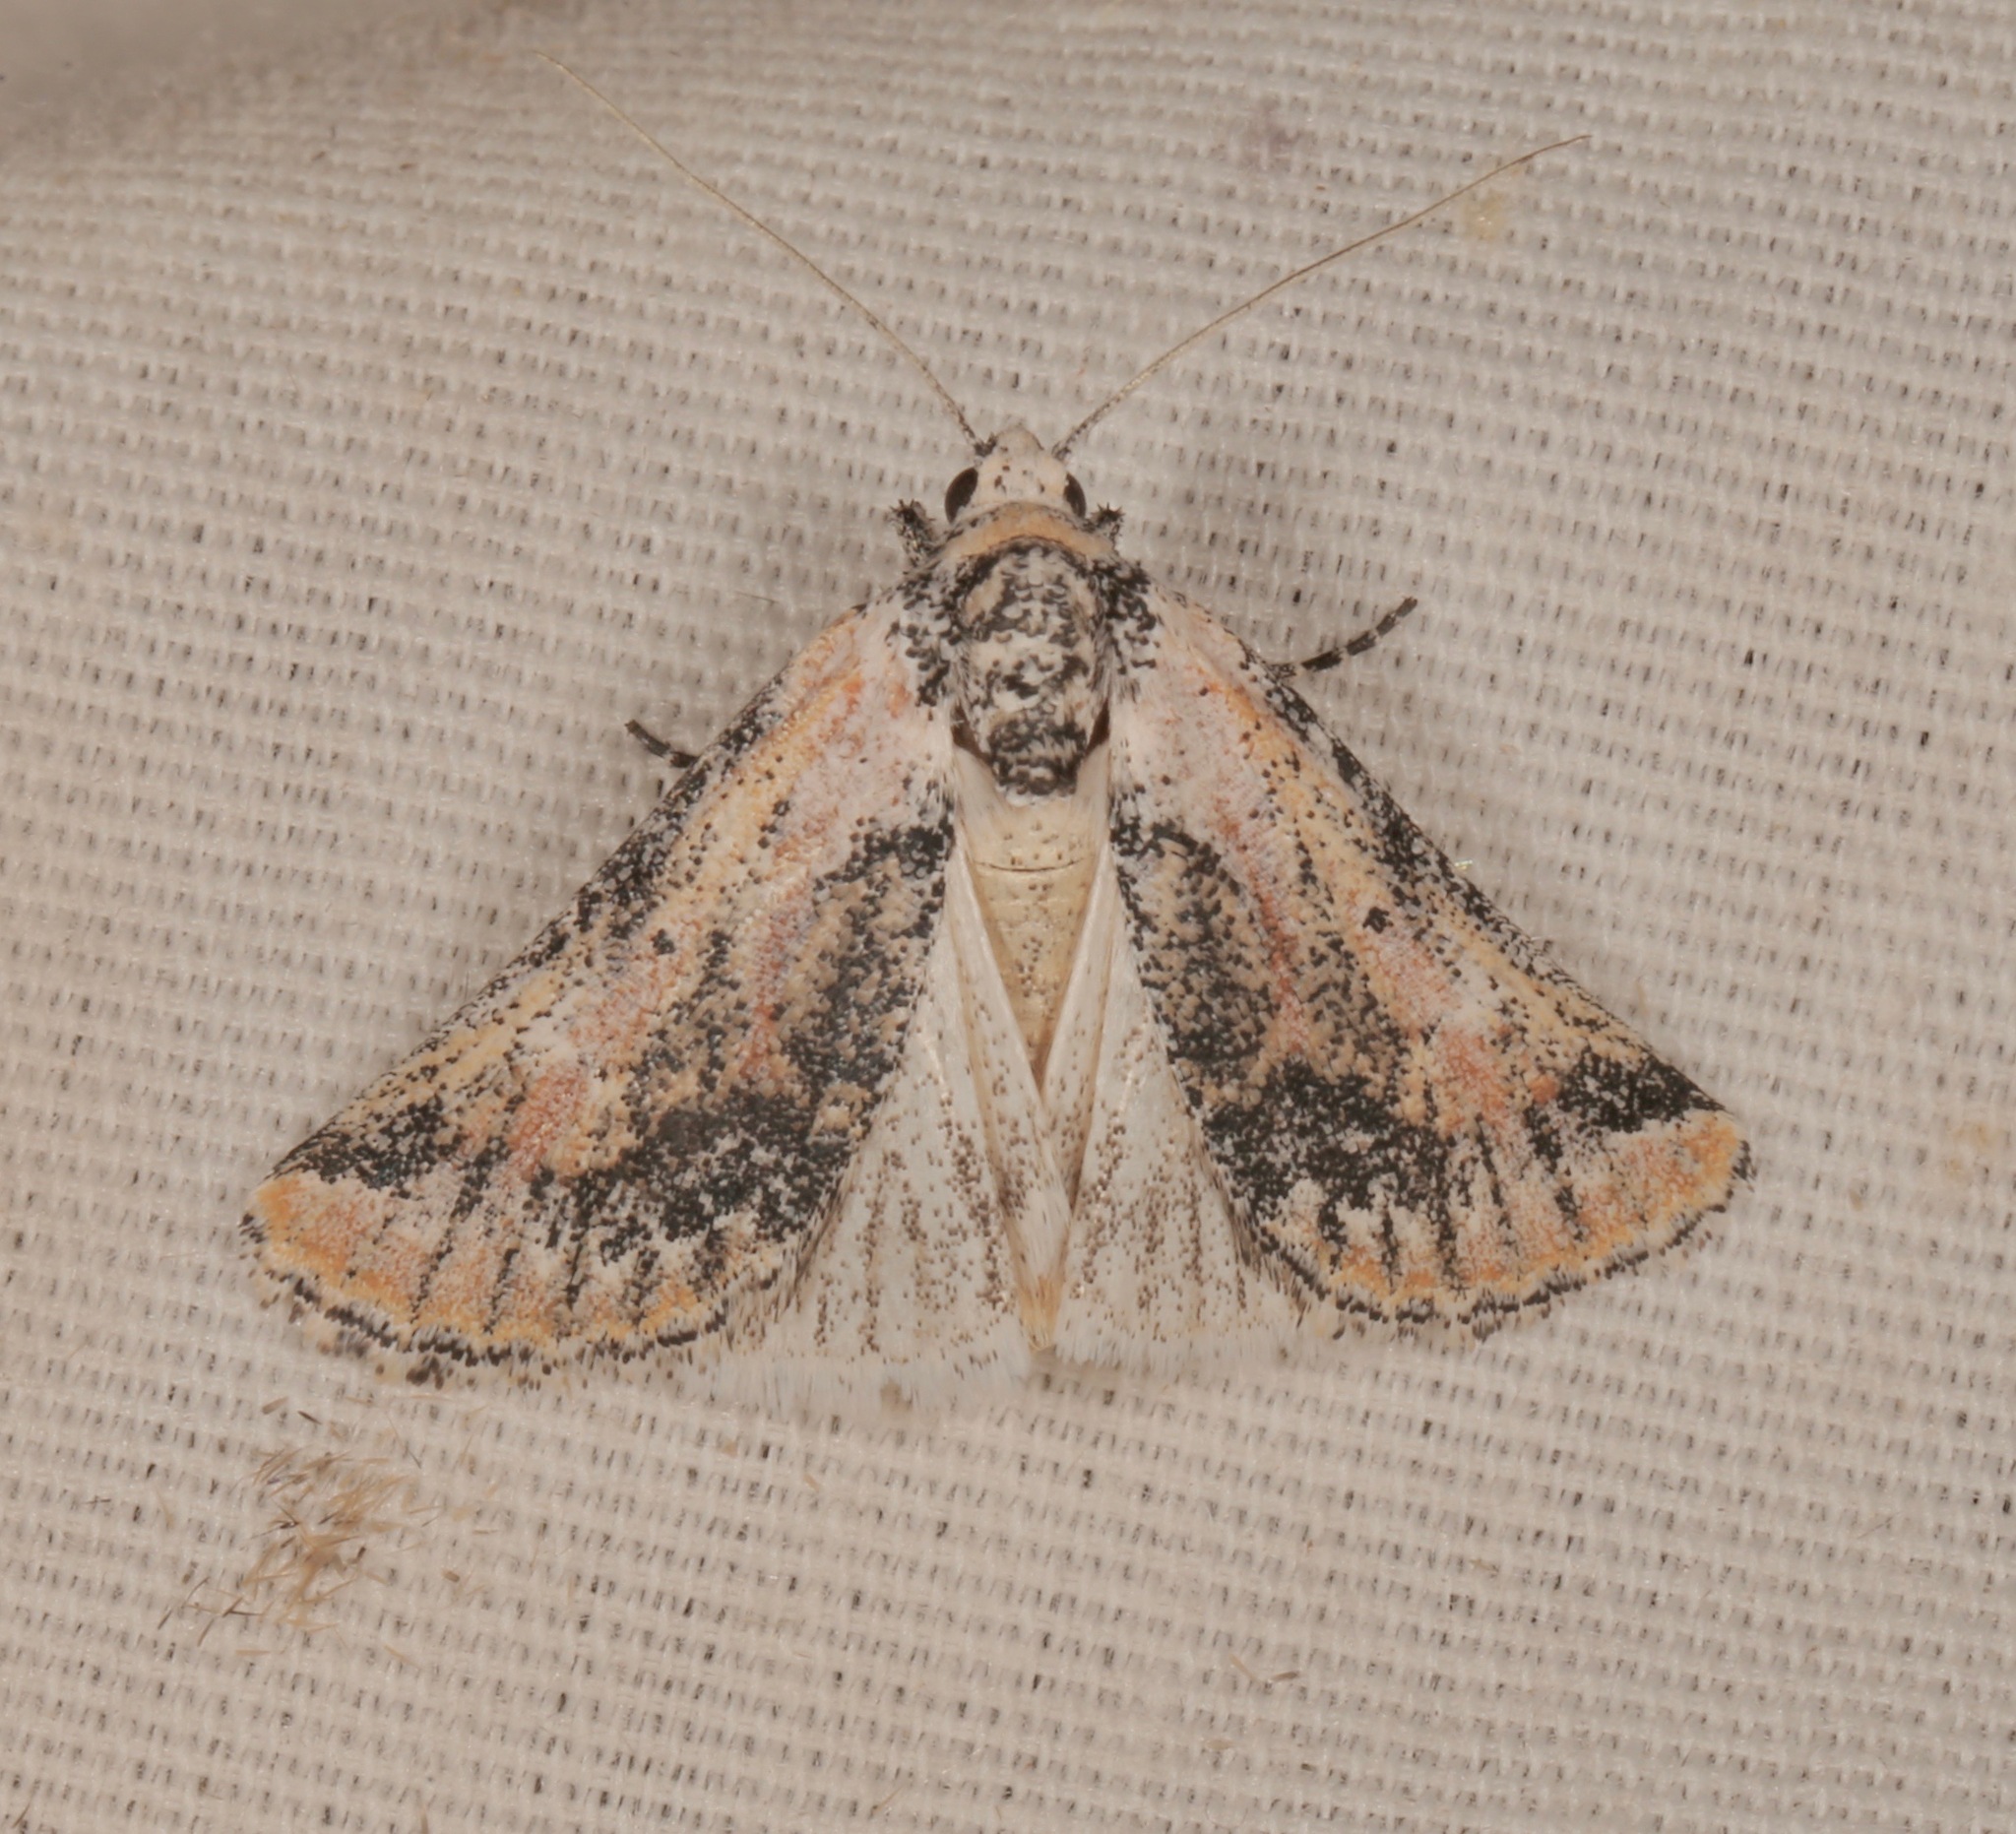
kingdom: Animalia
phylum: Arthropoda
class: Insecta
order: Lepidoptera
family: Noctuidae
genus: Podagra
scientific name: Podagra crassipes
